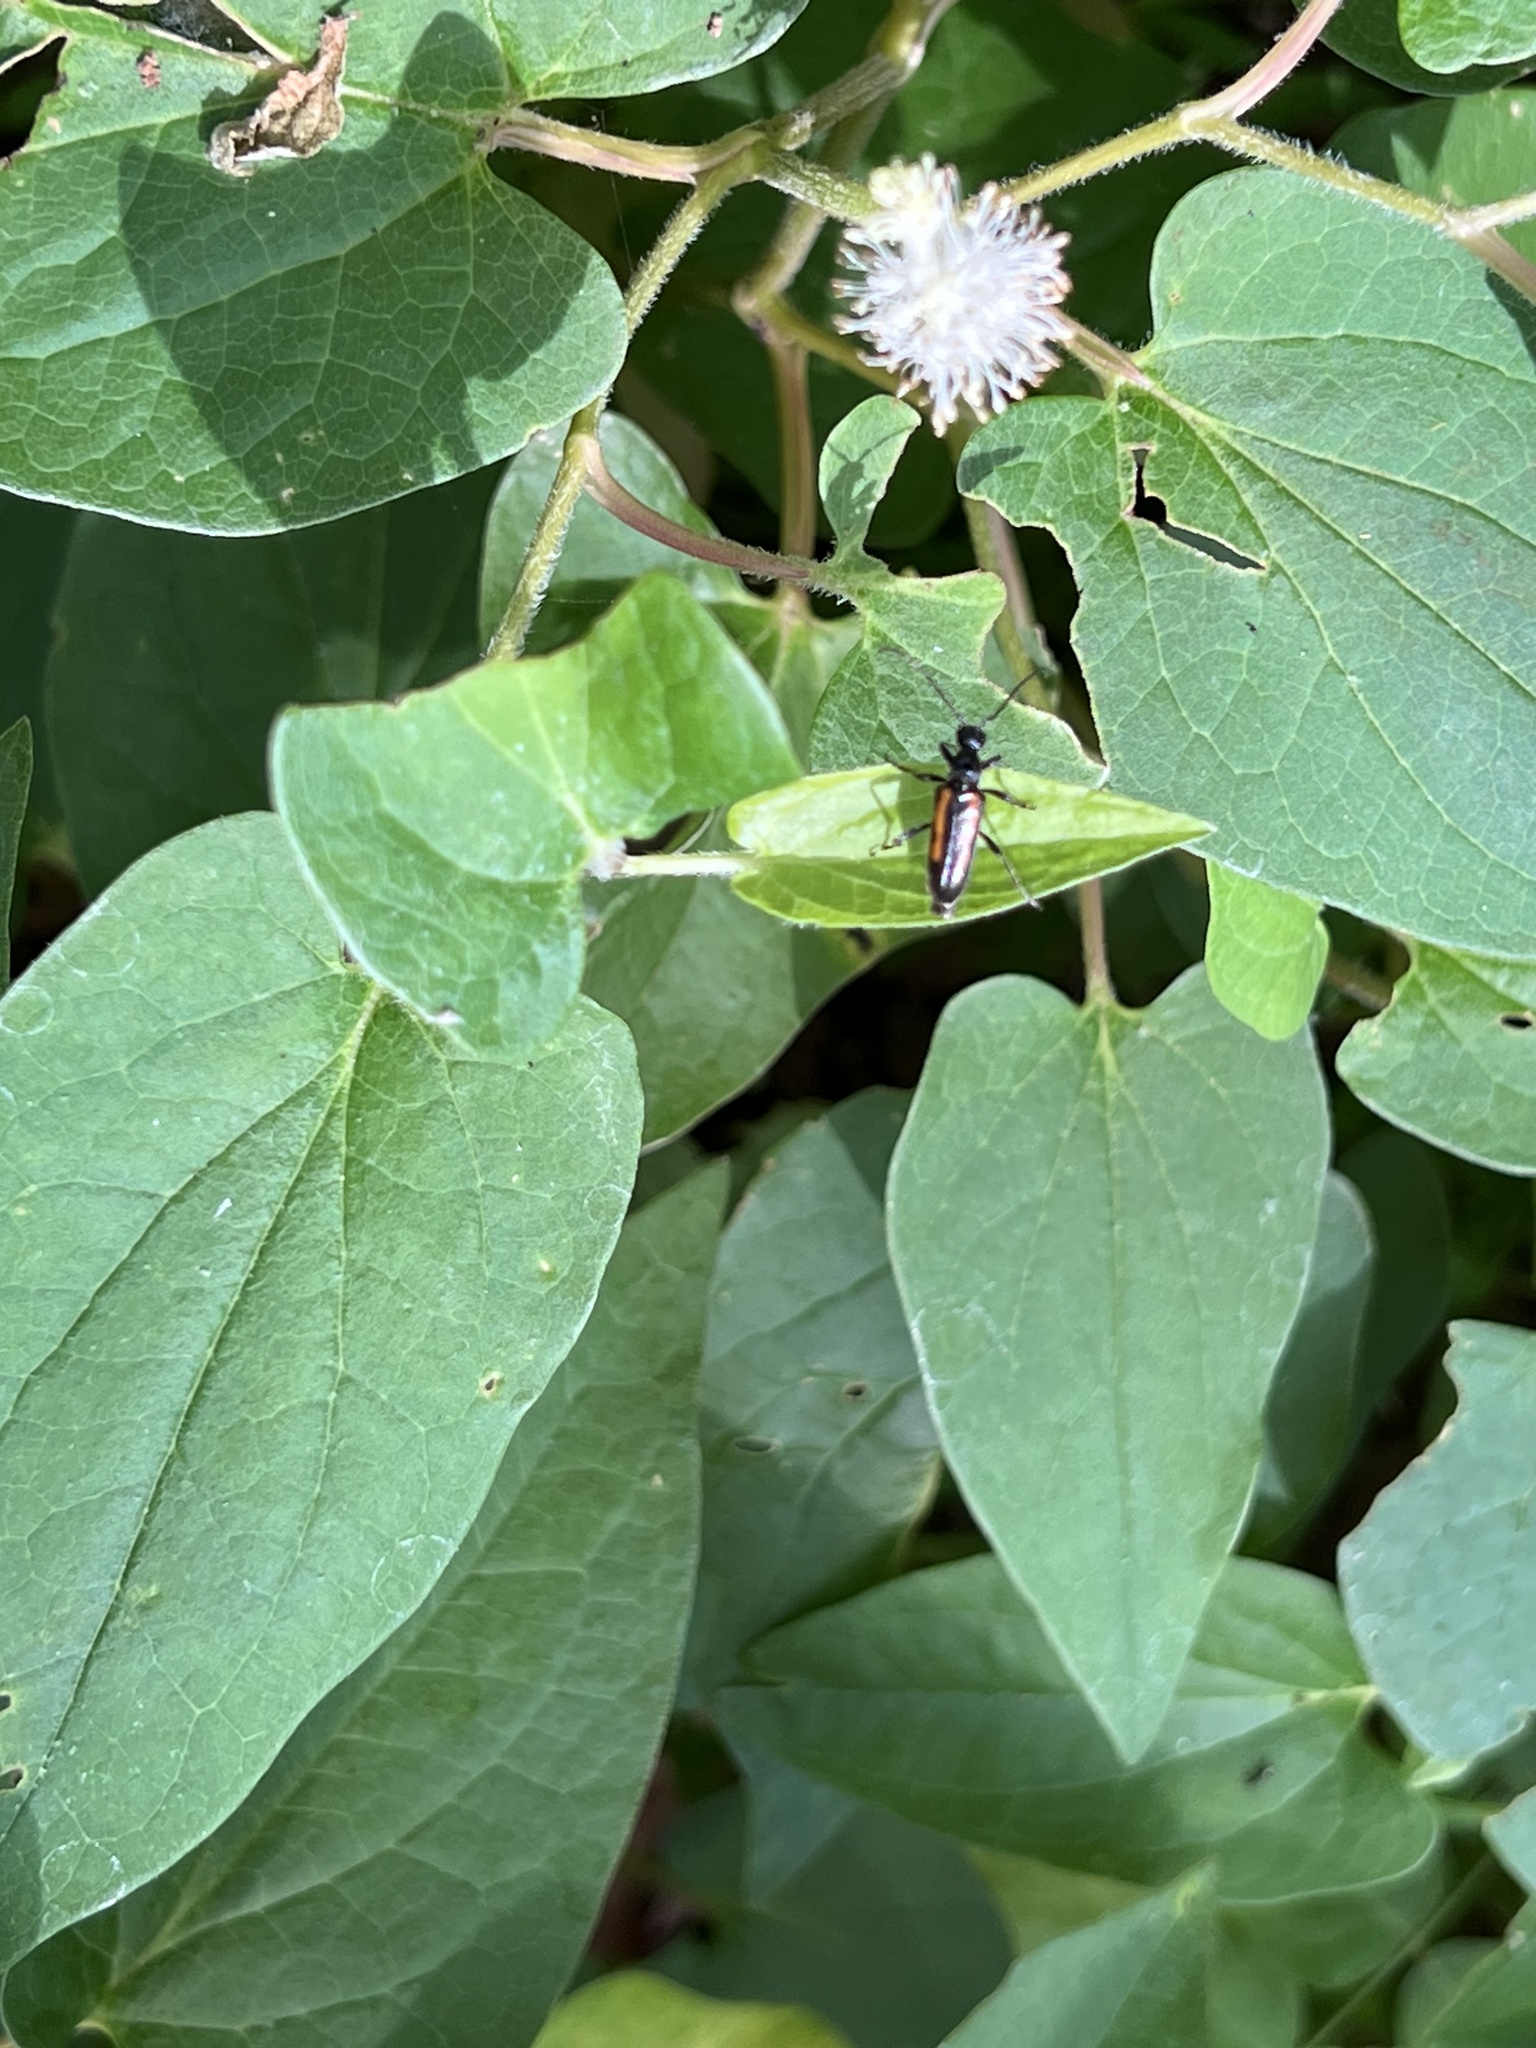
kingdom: Animalia
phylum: Arthropoda
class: Insecta
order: Coleoptera
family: Cerambycidae
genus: Strangalepta
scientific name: Strangalepta abbreviata
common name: Strangalepta flower longhorn beetle
